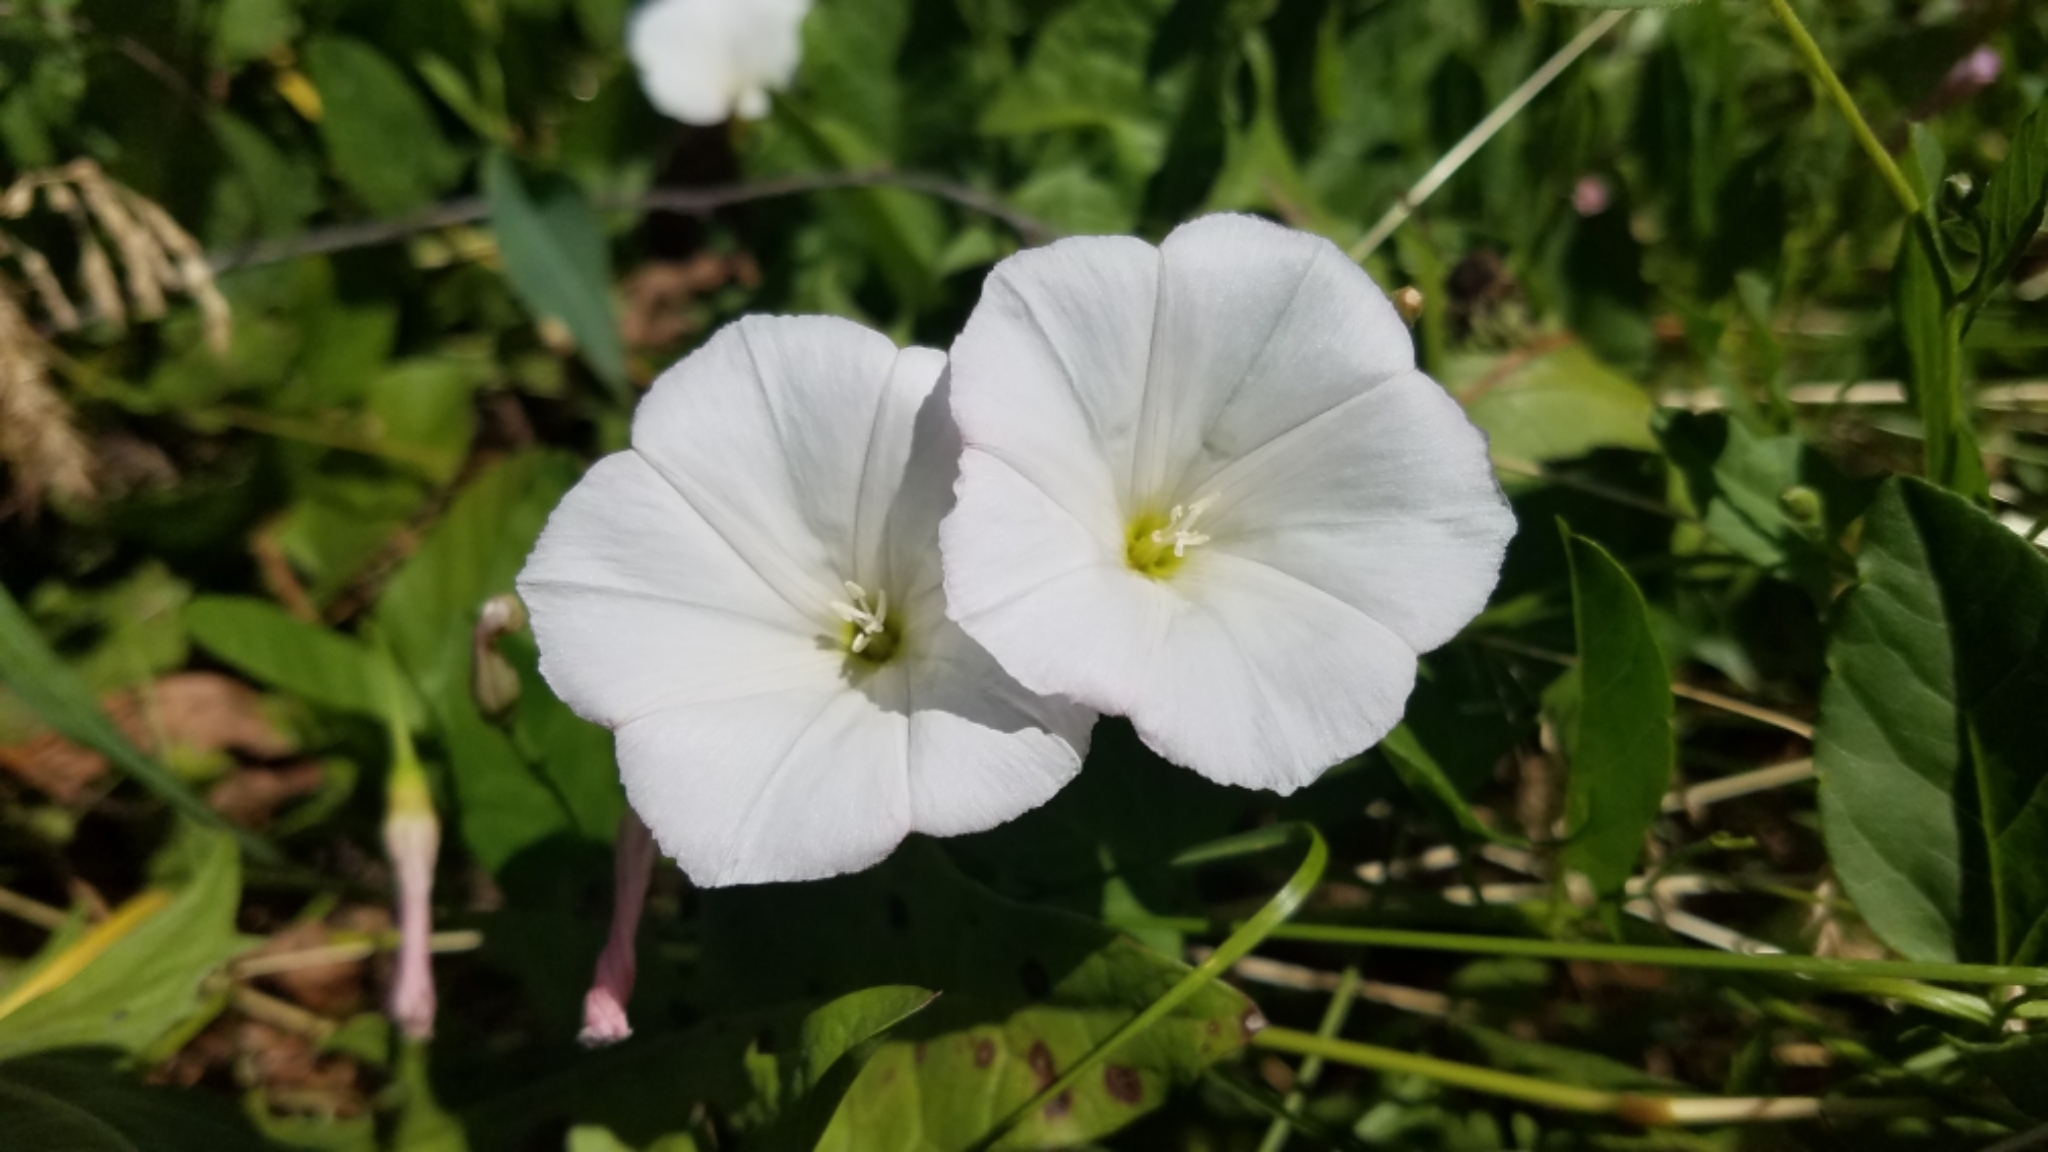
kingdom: Plantae
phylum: Tracheophyta
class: Magnoliopsida
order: Solanales
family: Convolvulaceae
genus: Convolvulus
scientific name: Convolvulus arvensis
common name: Field bindweed
